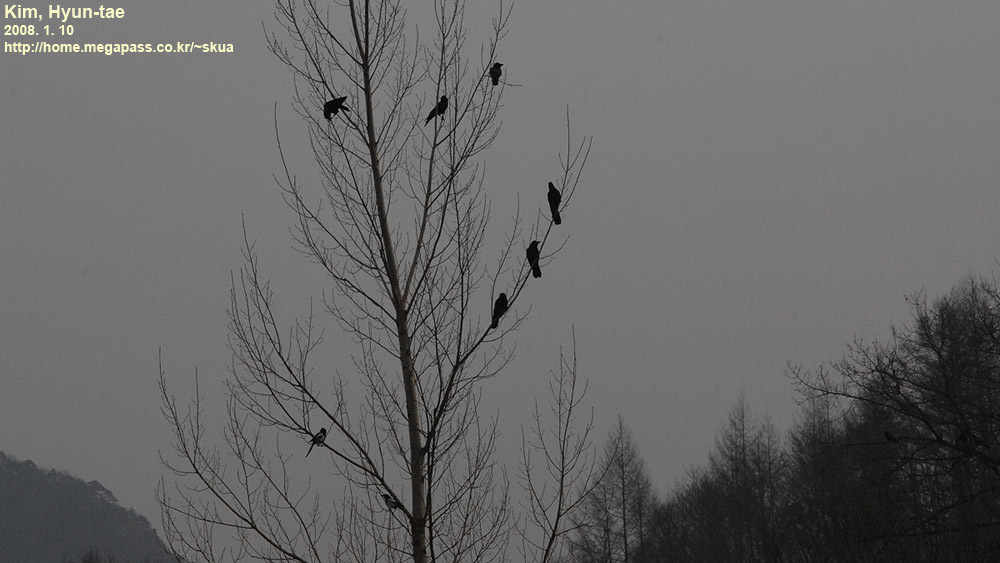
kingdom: Animalia
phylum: Chordata
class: Aves
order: Passeriformes
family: Corvidae
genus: Corvus
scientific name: Corvus corone
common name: Carrion crow
